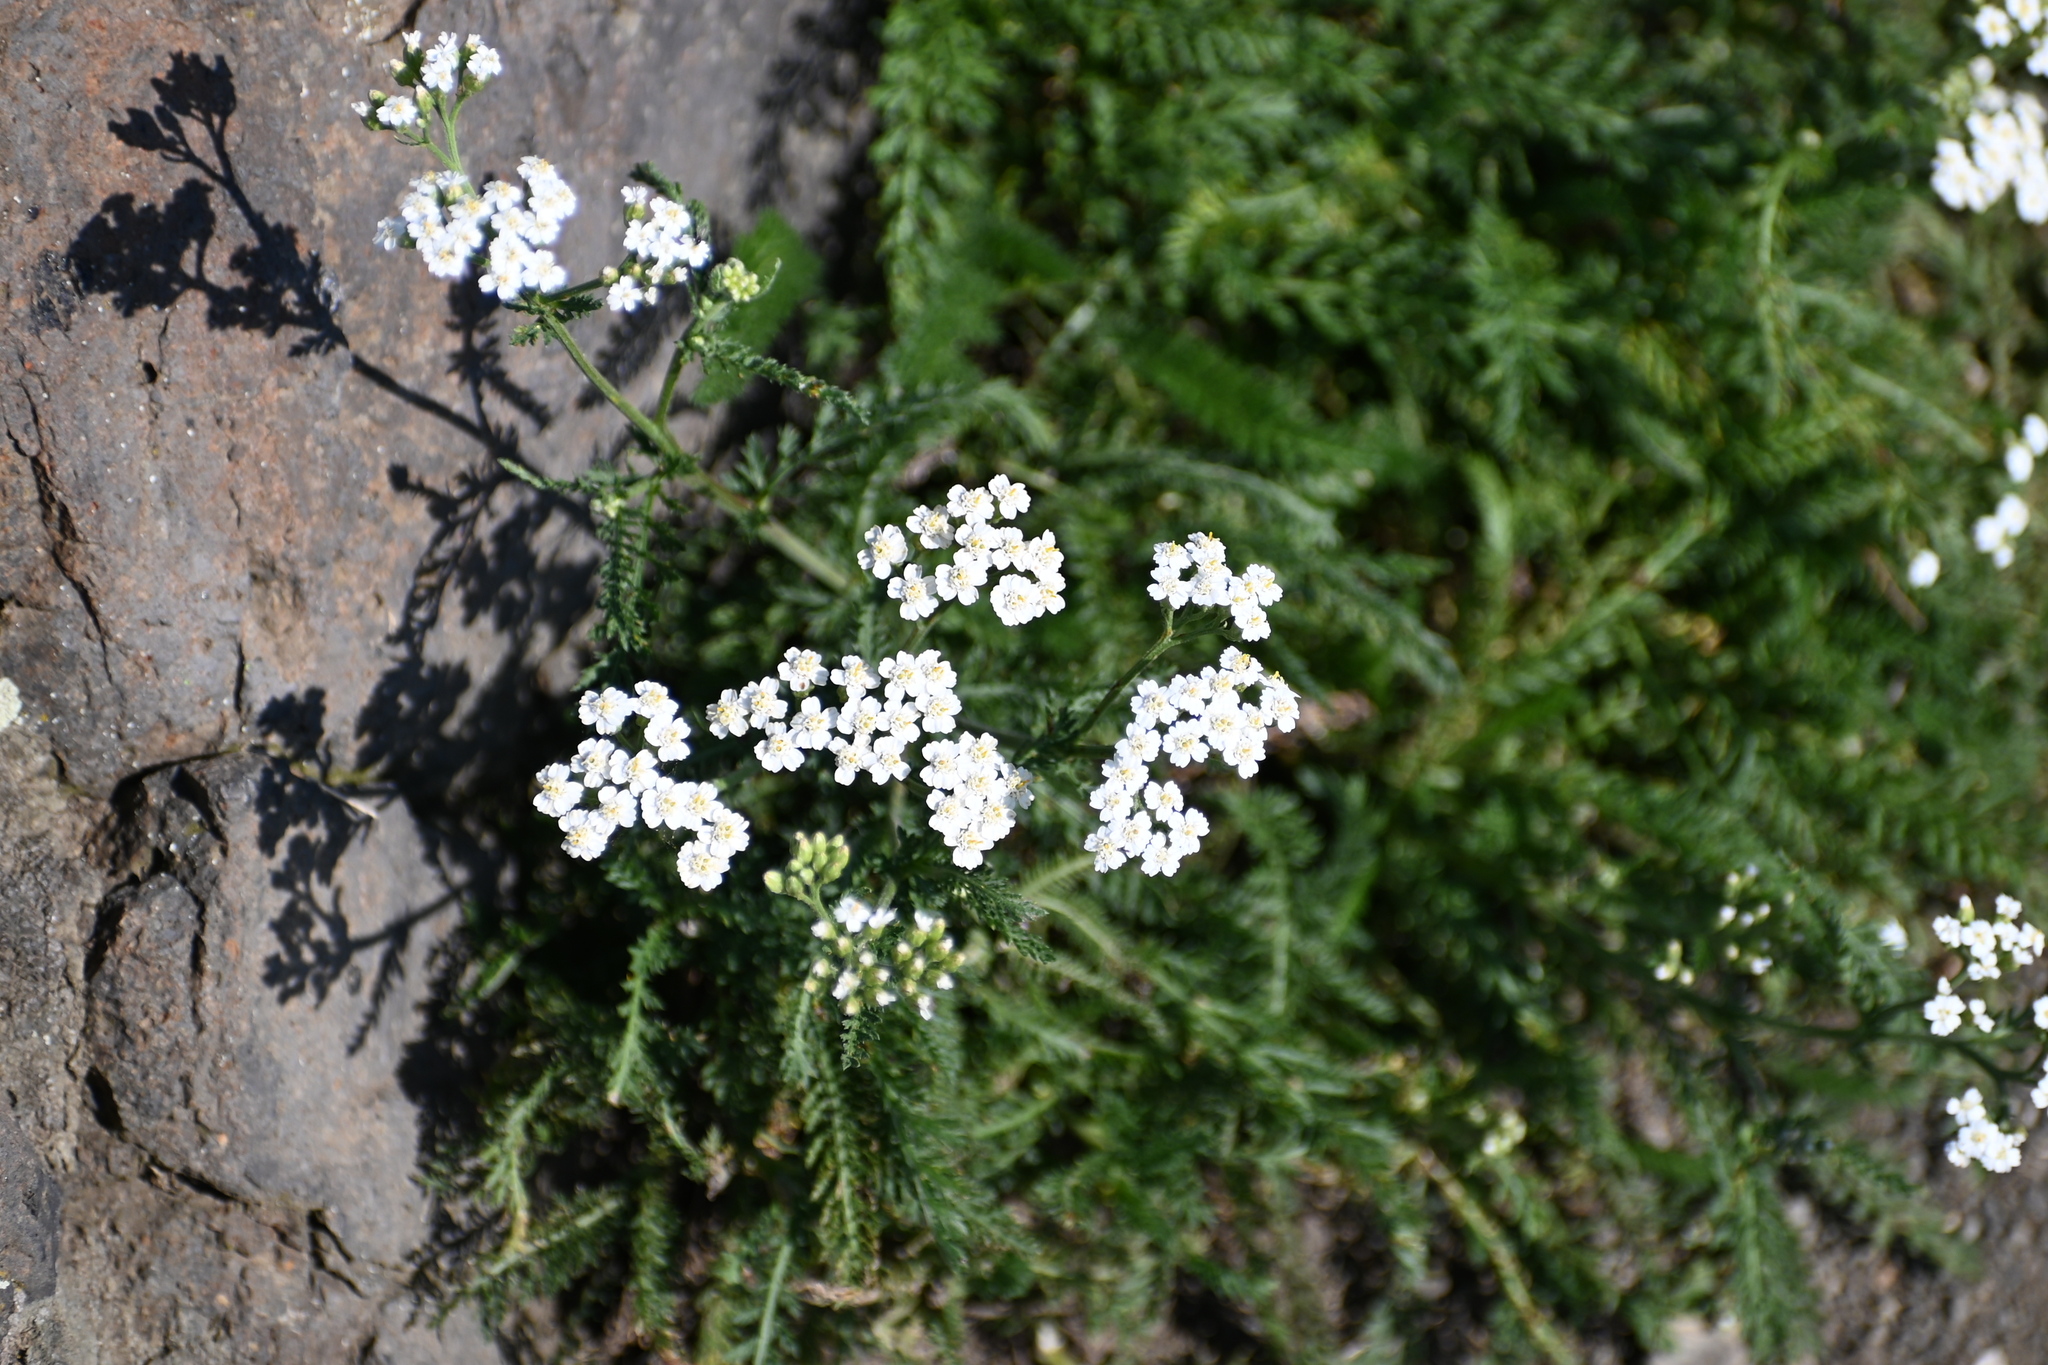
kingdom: Plantae
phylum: Tracheophyta
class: Magnoliopsida
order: Asterales
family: Asteraceae
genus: Achillea
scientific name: Achillea millefolium
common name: Yarrow
